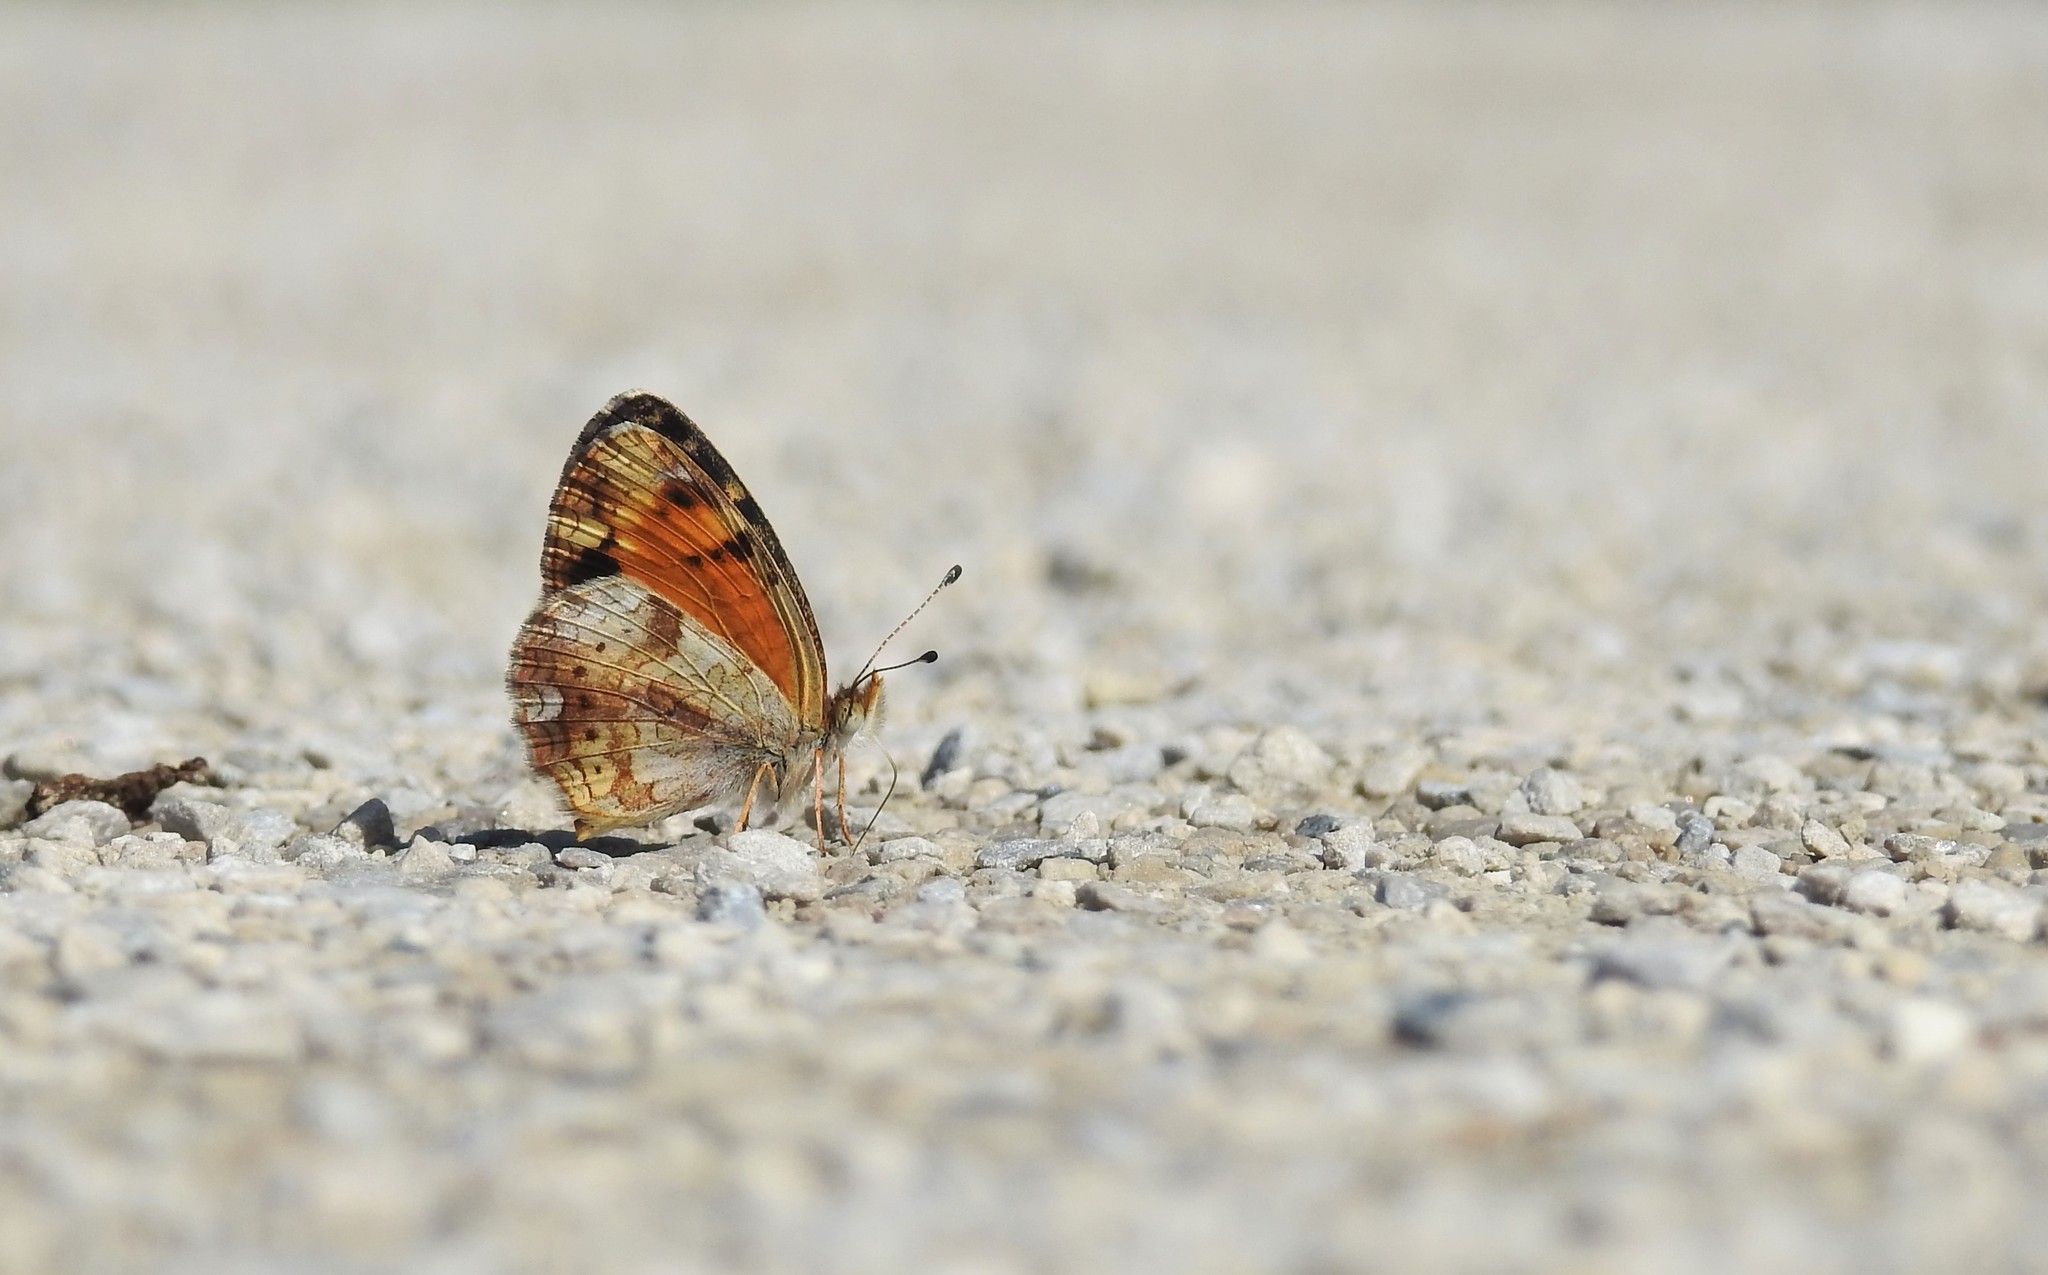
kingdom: Animalia
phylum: Arthropoda
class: Insecta
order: Lepidoptera
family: Nymphalidae
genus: Phyciodes
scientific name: Phyciodes tharos
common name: Pearl crescent
